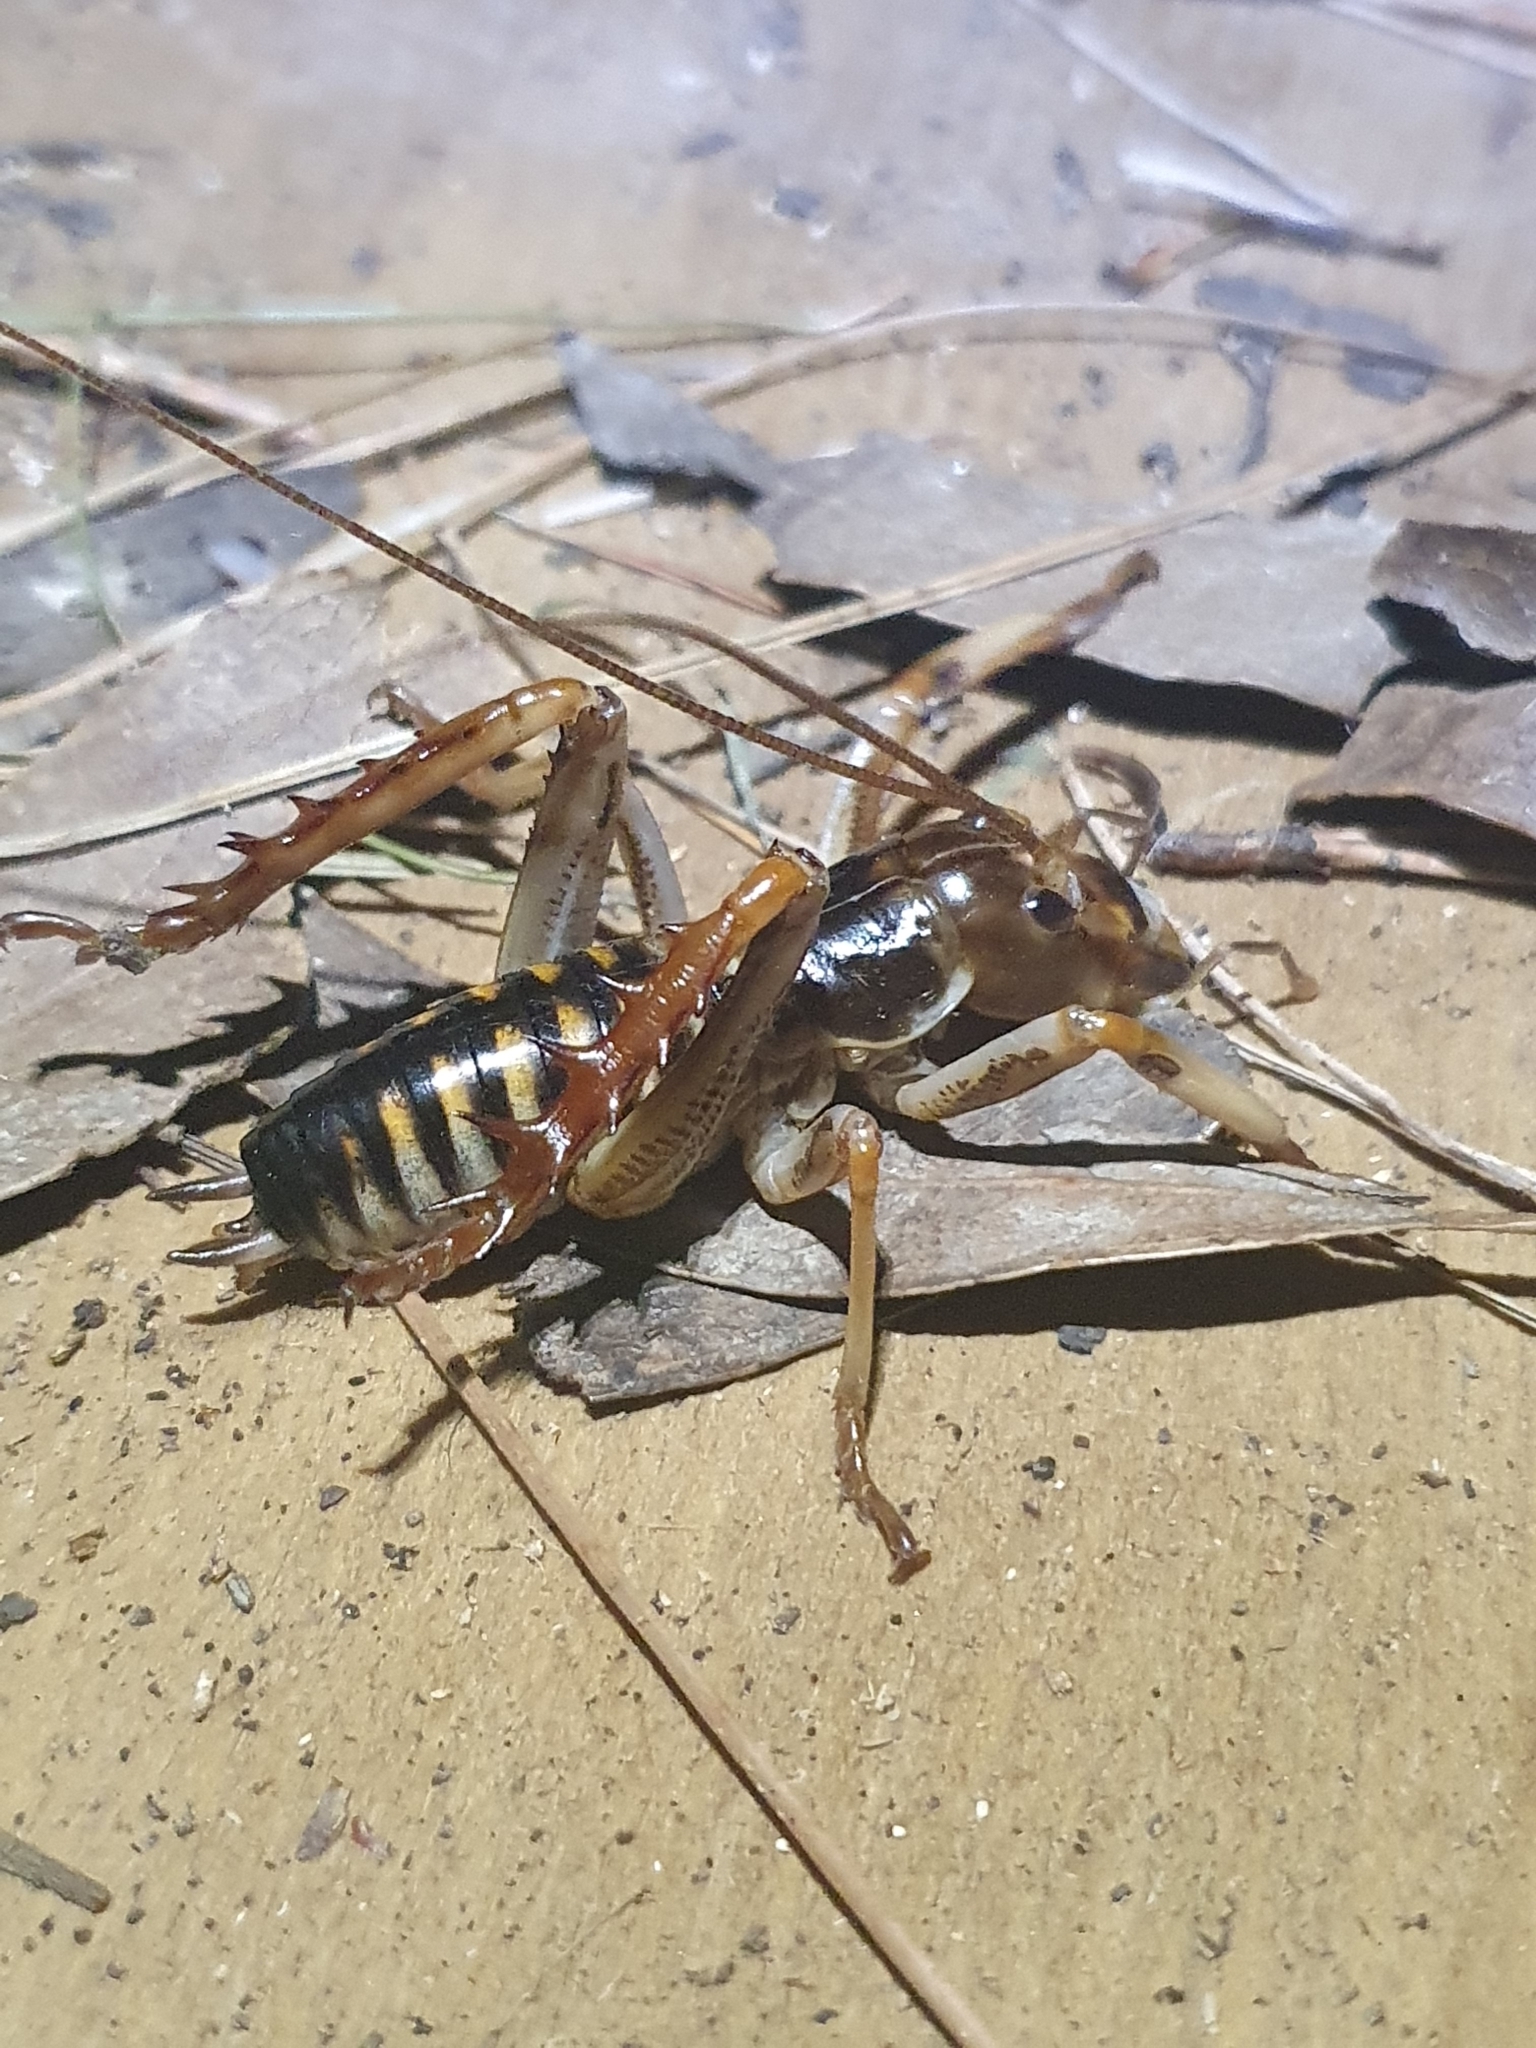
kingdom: Animalia
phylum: Arthropoda
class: Insecta
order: Orthoptera
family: Anostostomatidae
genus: Hemideina
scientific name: Hemideina crassidens
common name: Wellington tree weta
